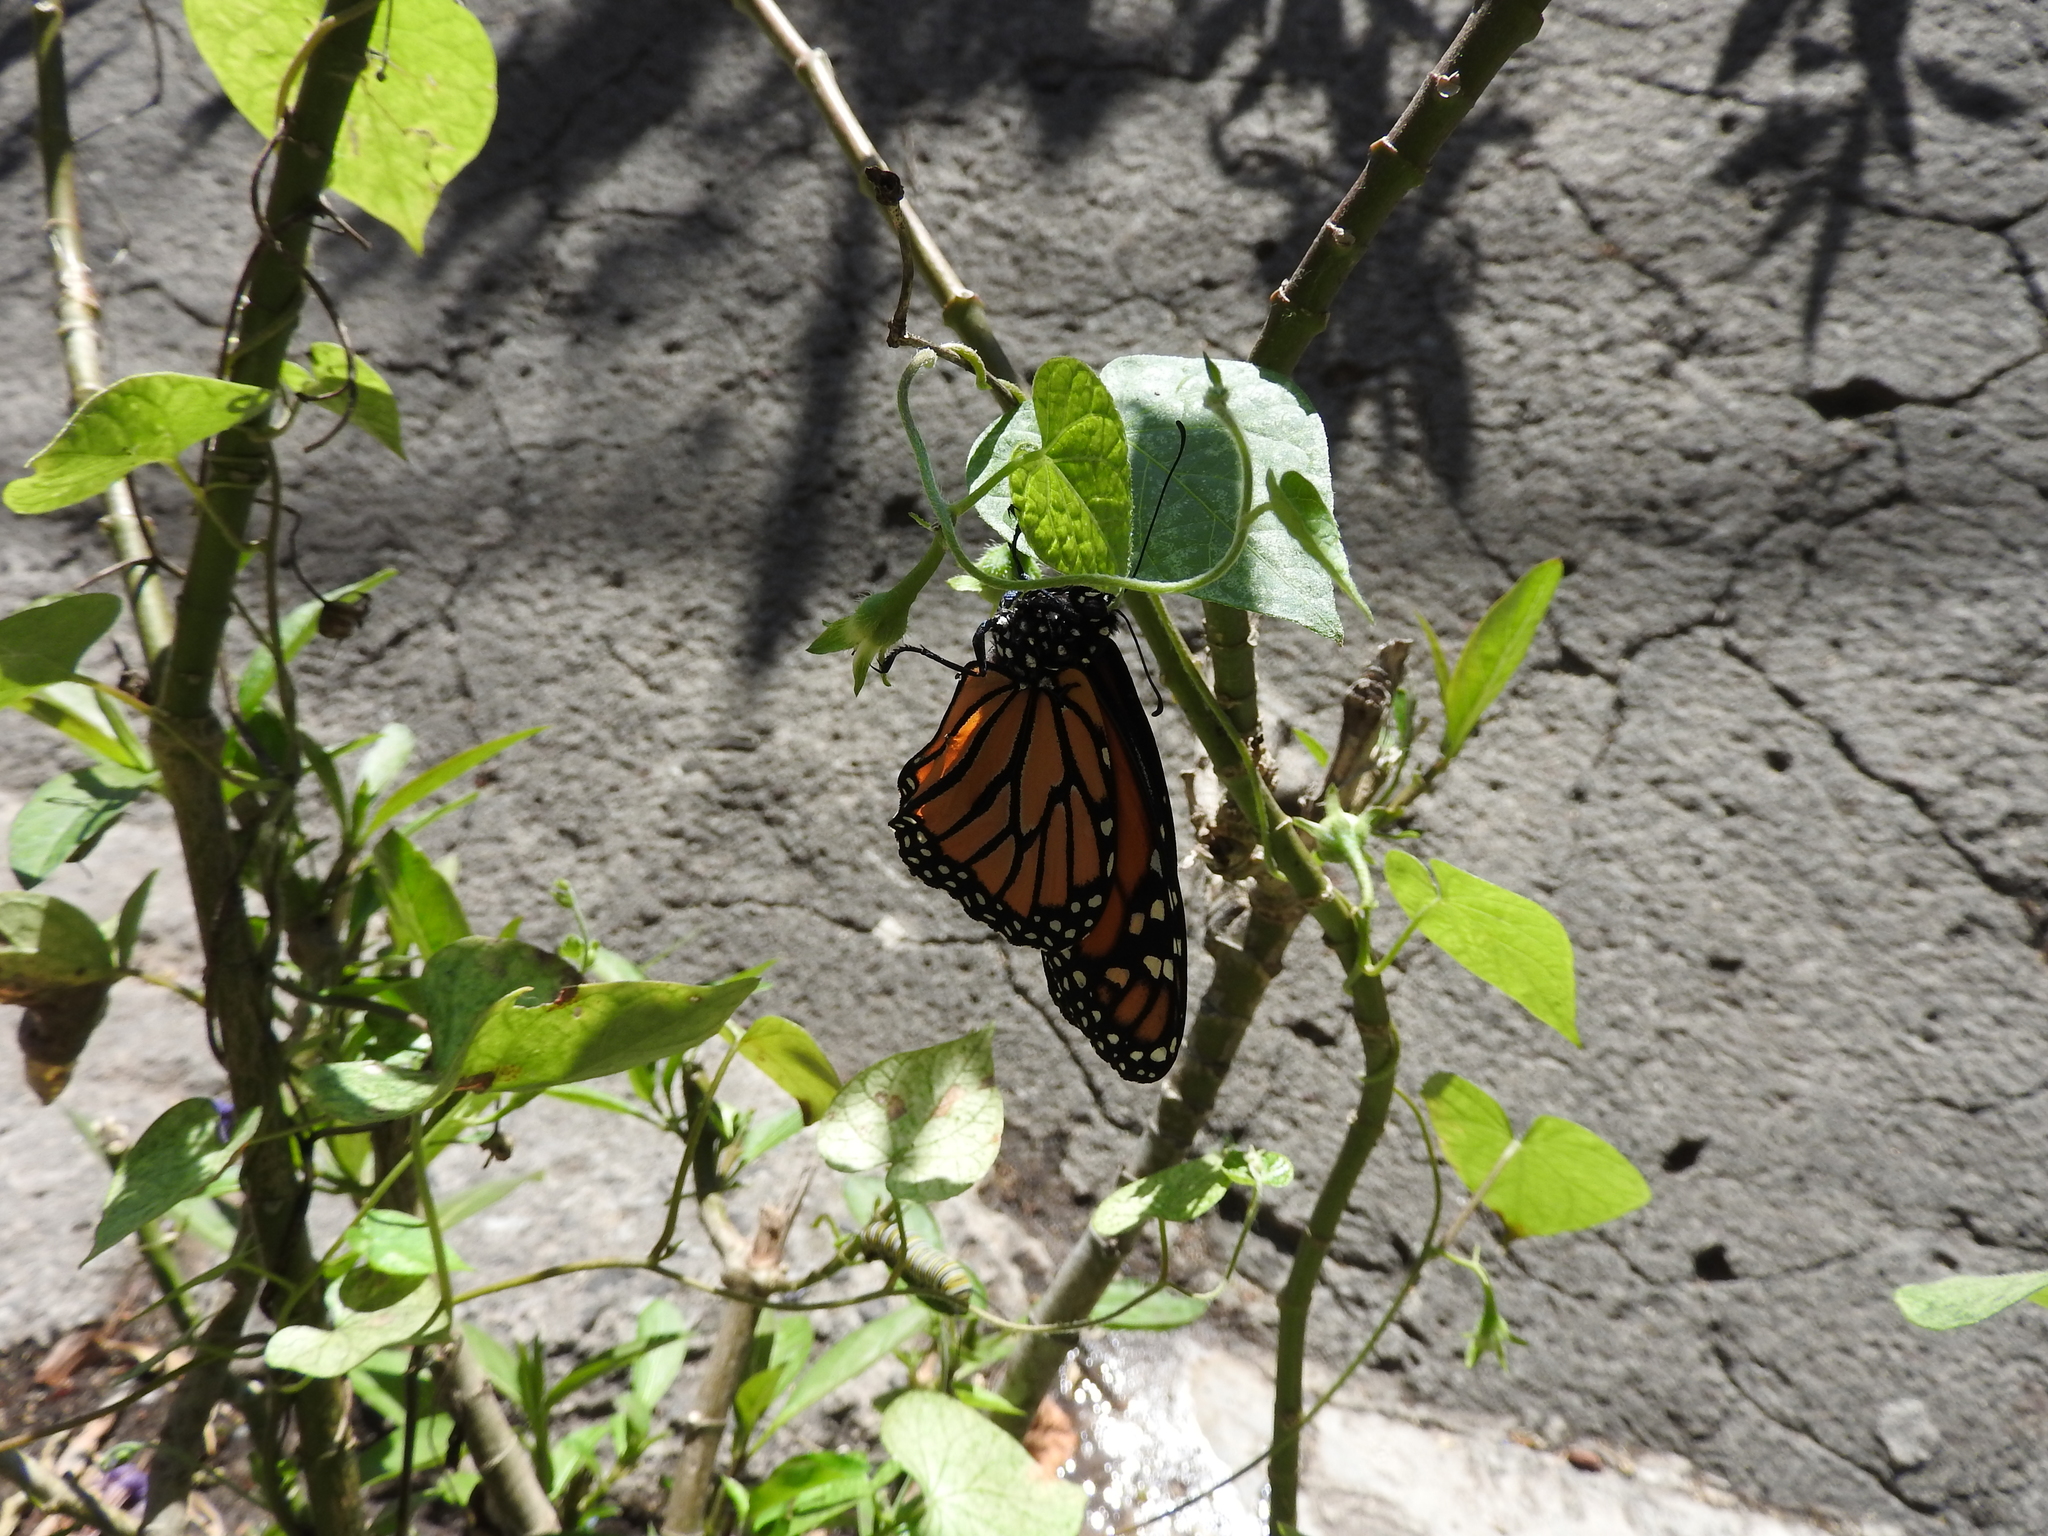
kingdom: Animalia
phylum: Arthropoda
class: Insecta
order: Lepidoptera
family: Nymphalidae
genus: Danaus
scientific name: Danaus plexippus
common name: Monarch
